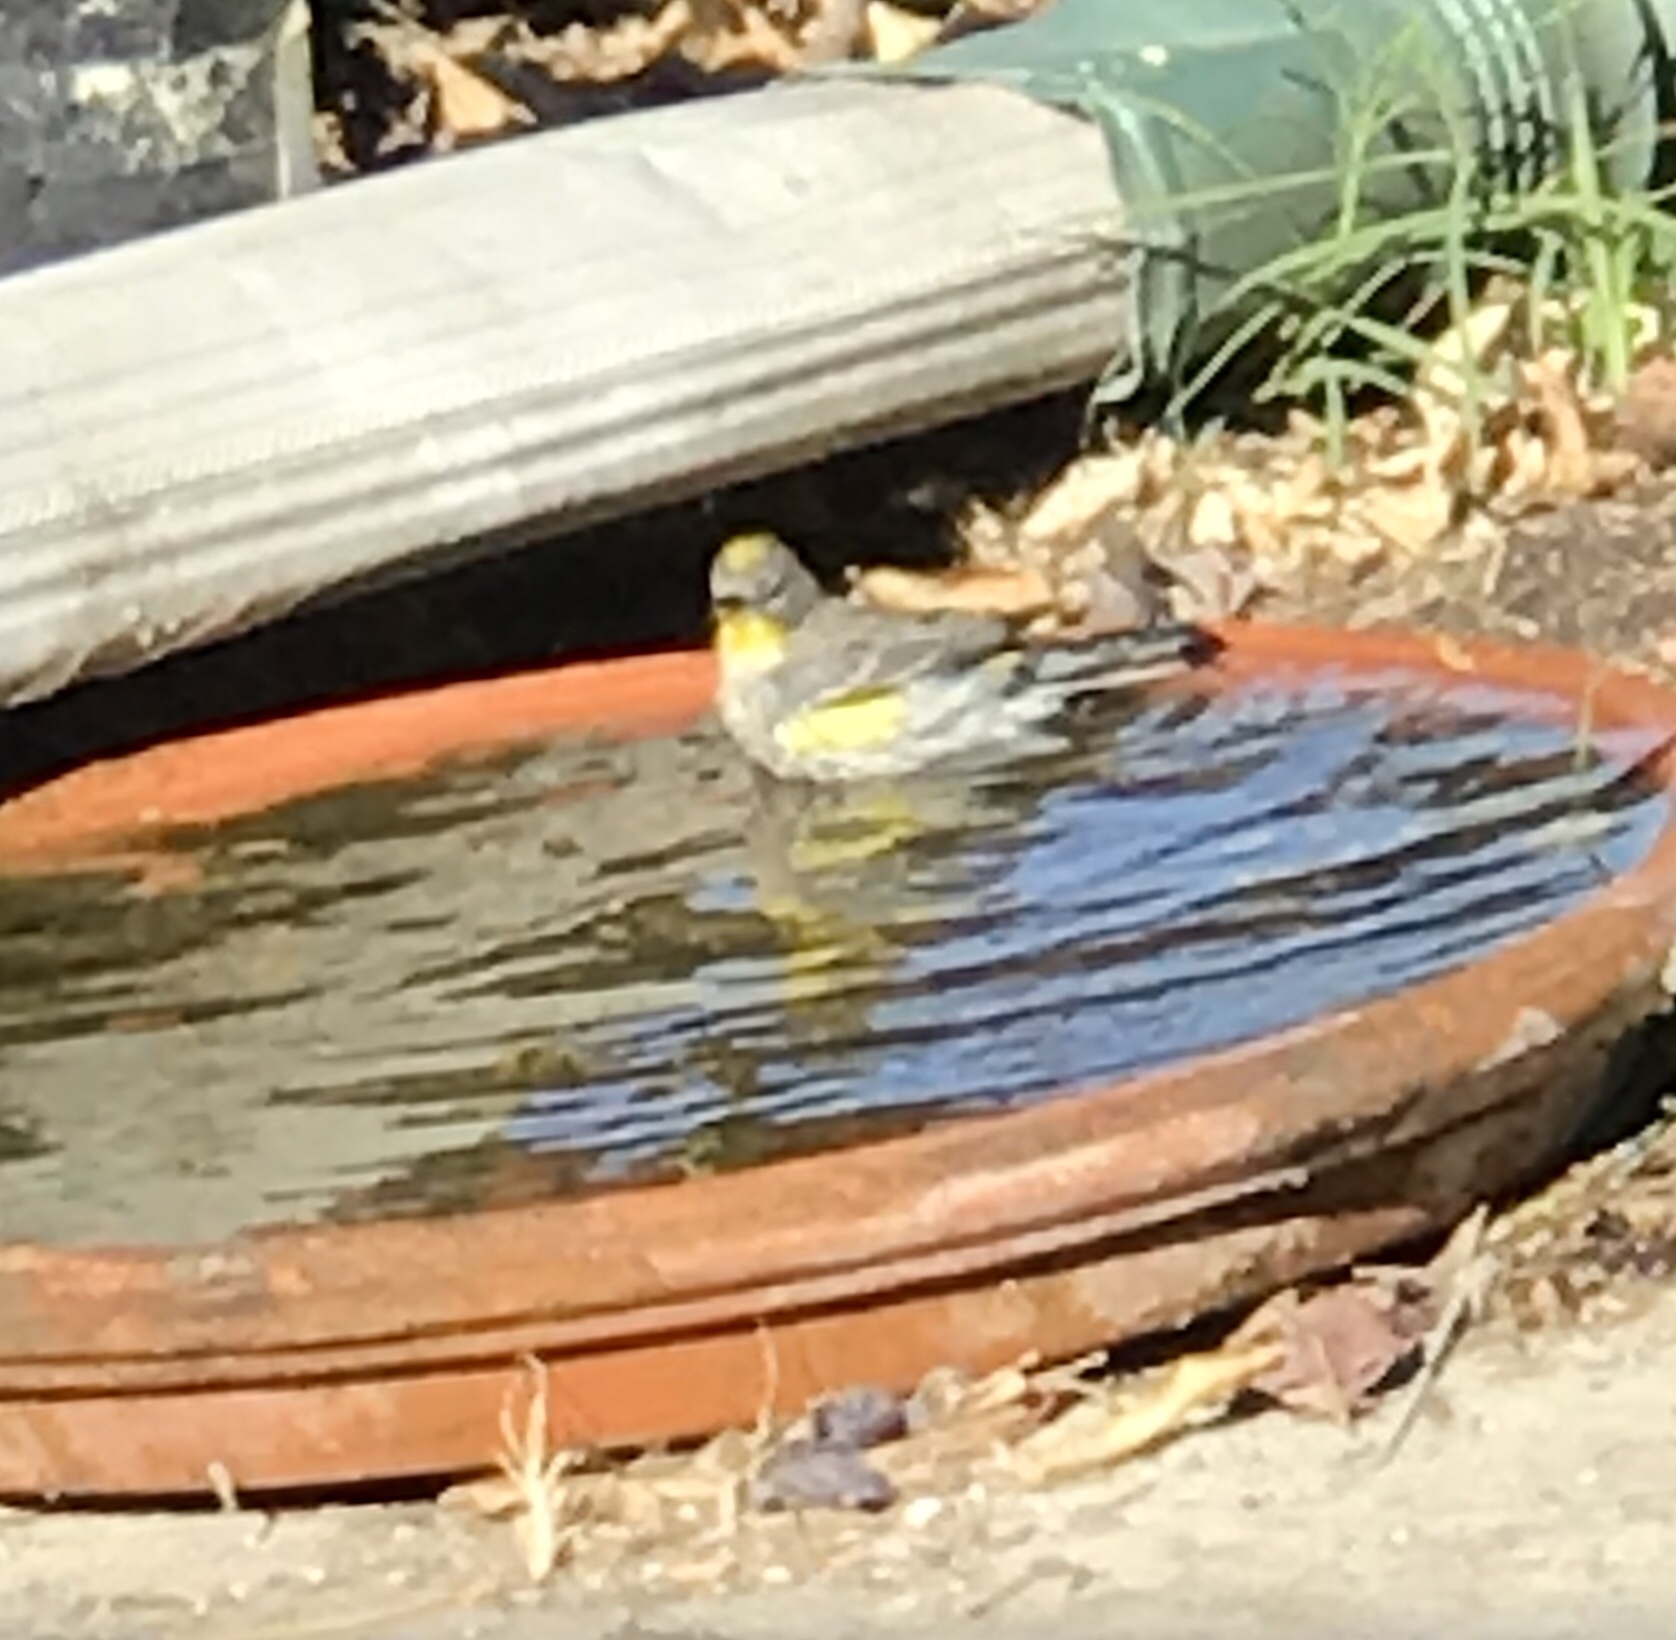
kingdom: Animalia
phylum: Chordata
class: Aves
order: Passeriformes
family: Parulidae
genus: Setophaga
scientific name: Setophaga auduboni
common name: Audubon's warbler
